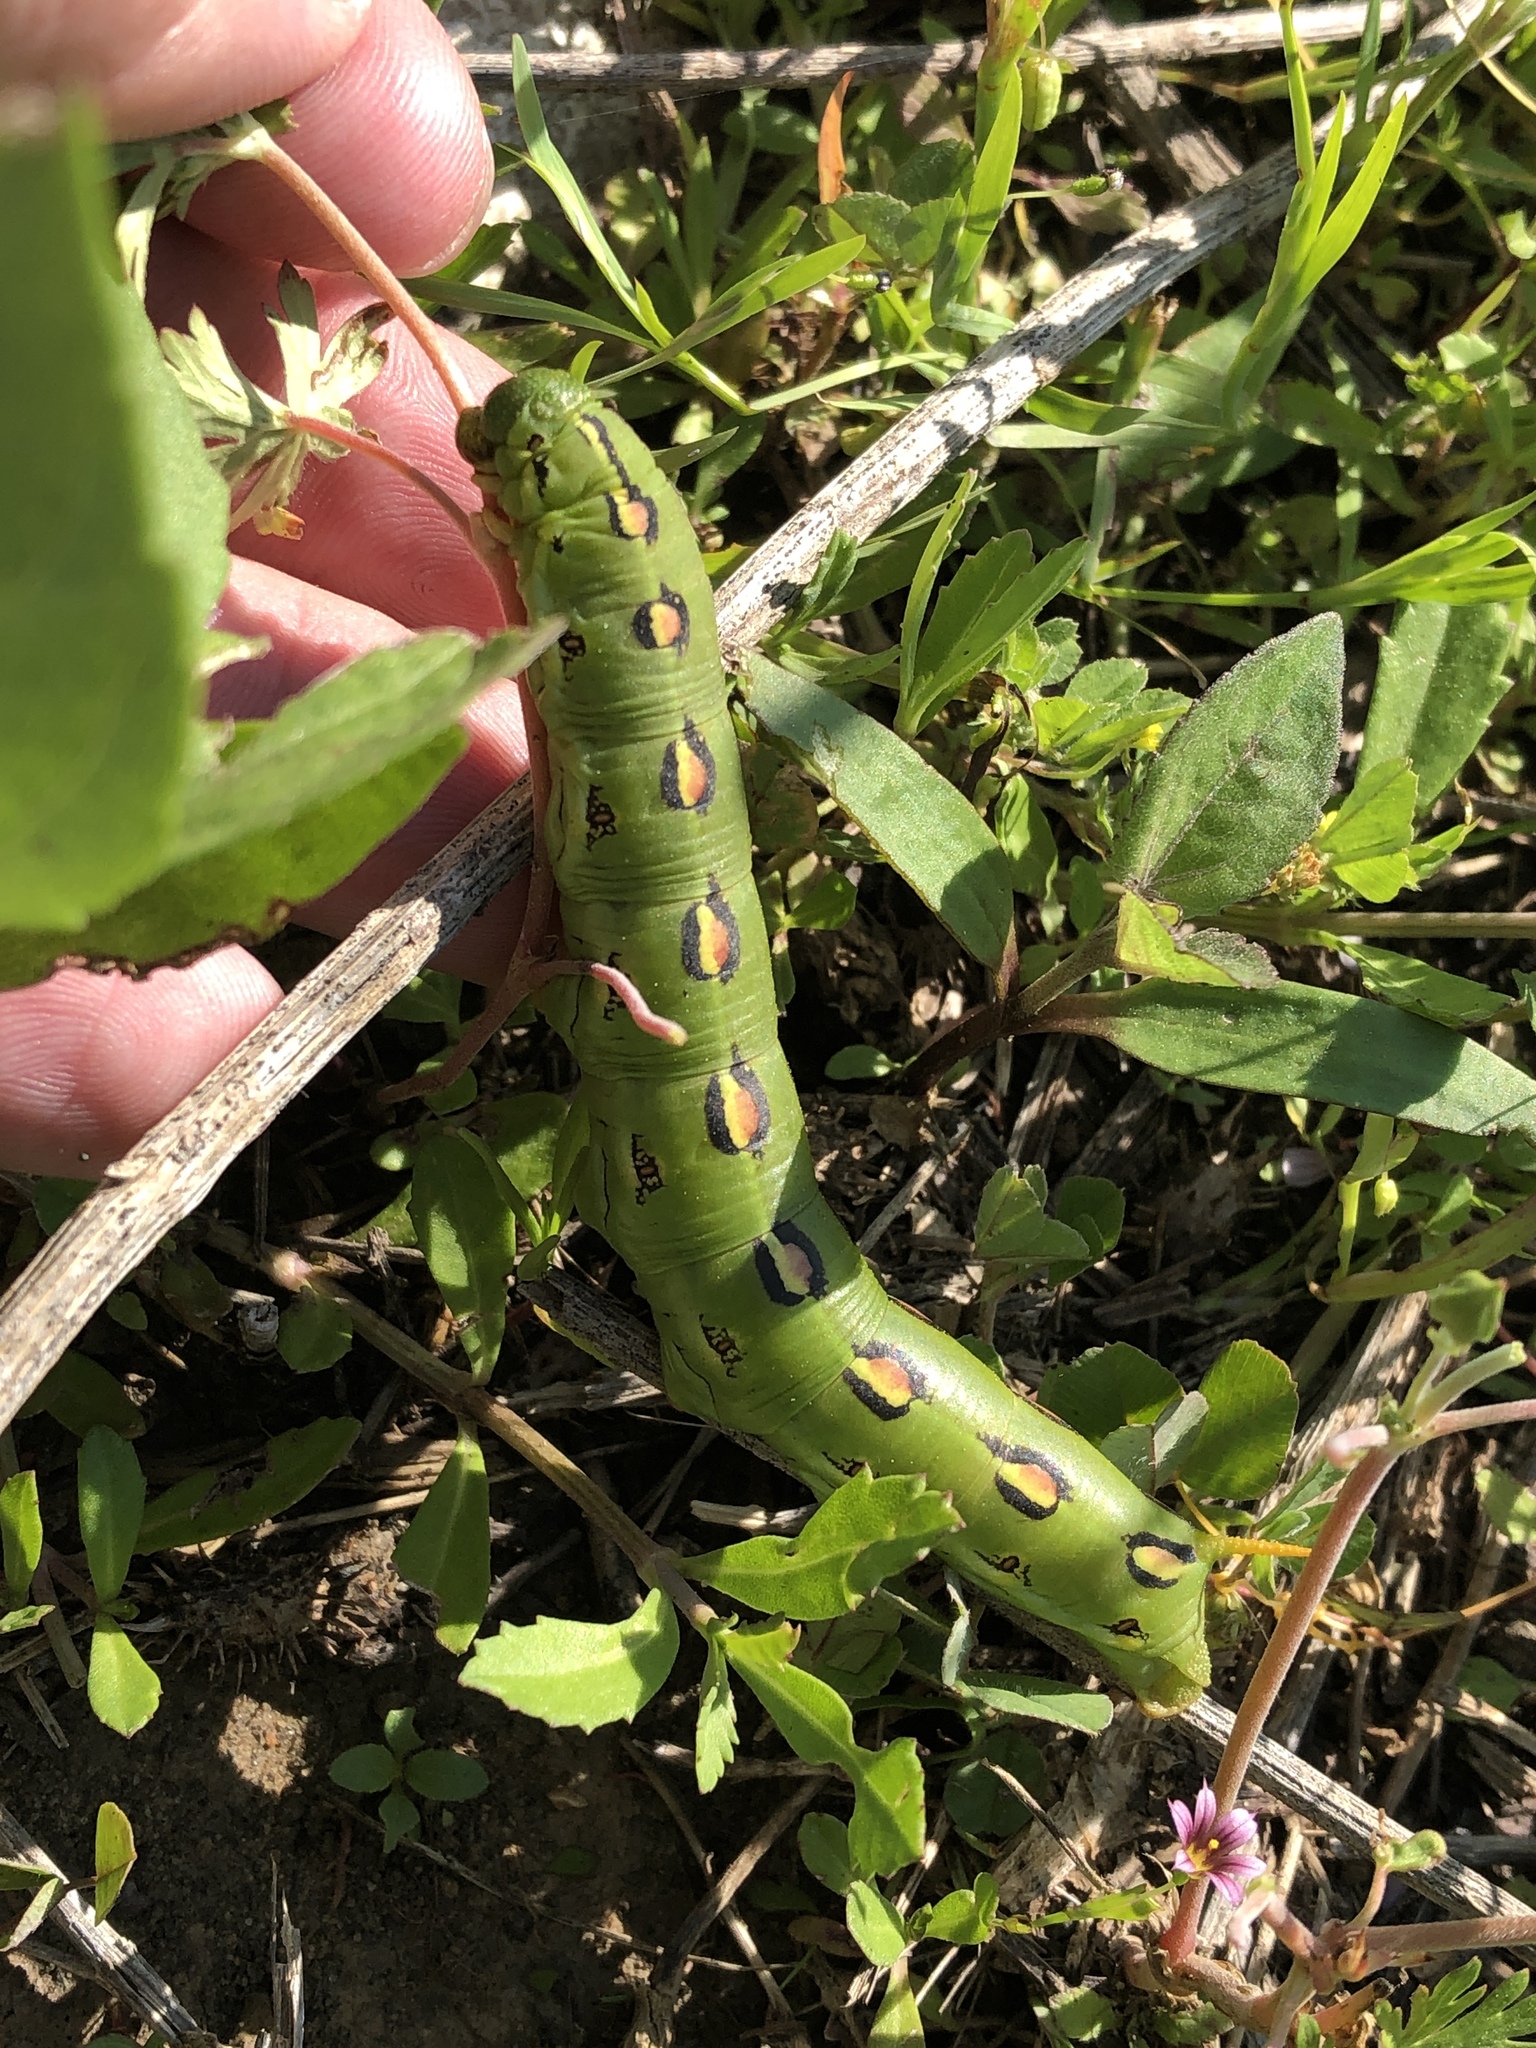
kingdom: Animalia
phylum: Arthropoda
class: Insecta
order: Lepidoptera
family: Sphingidae
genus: Hyles
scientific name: Hyles lineata
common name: White-lined sphinx
